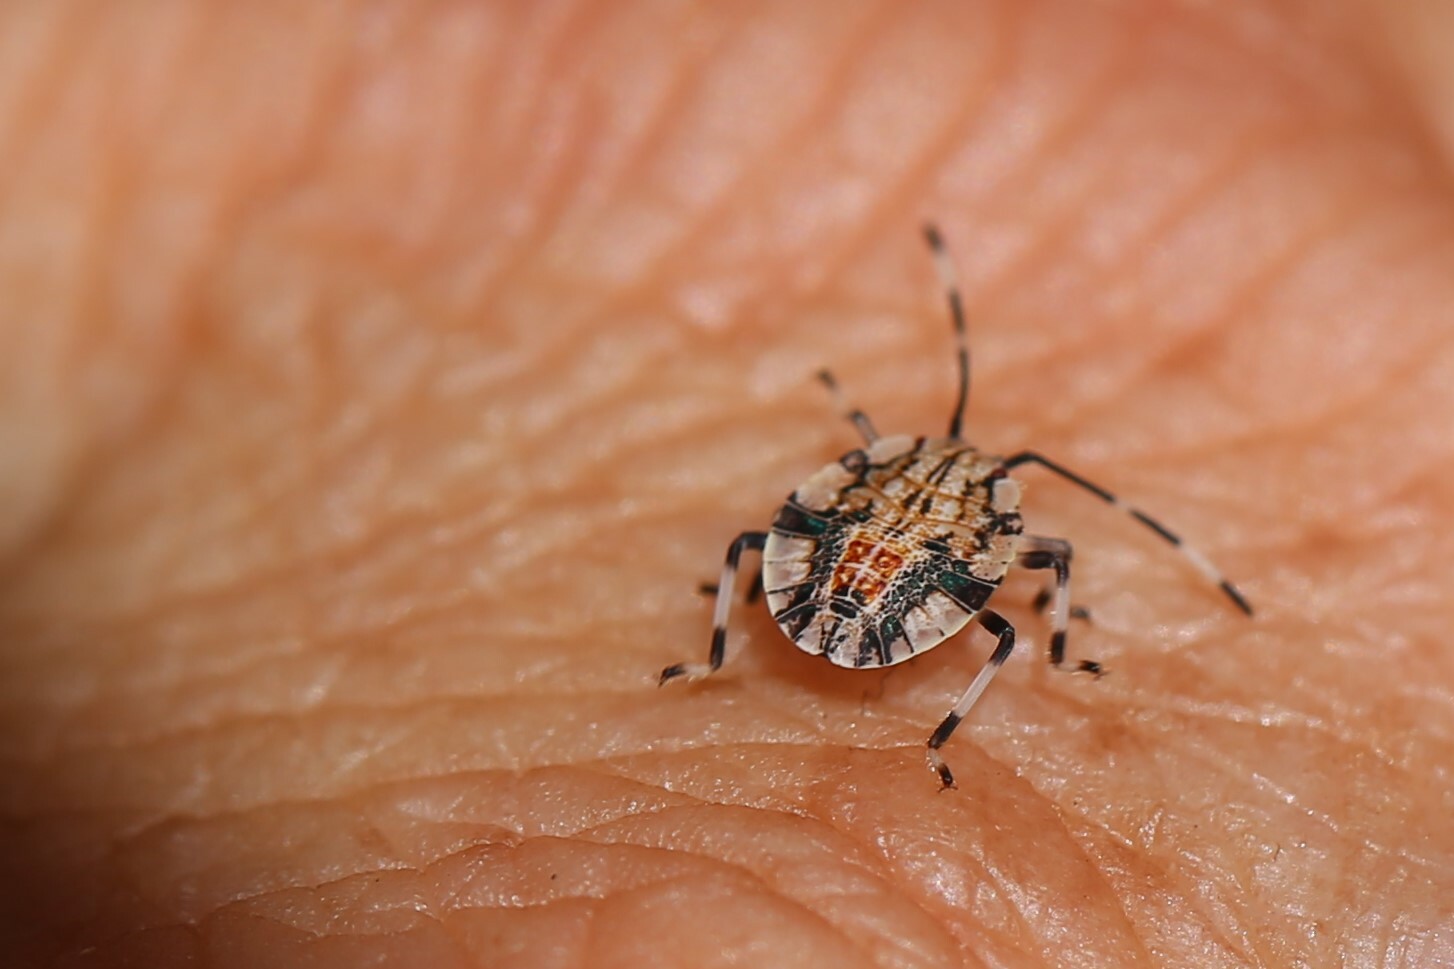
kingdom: Animalia
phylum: Arthropoda
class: Insecta
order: Hemiptera
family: Pentatomidae
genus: Bathrus
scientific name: Bathrus
